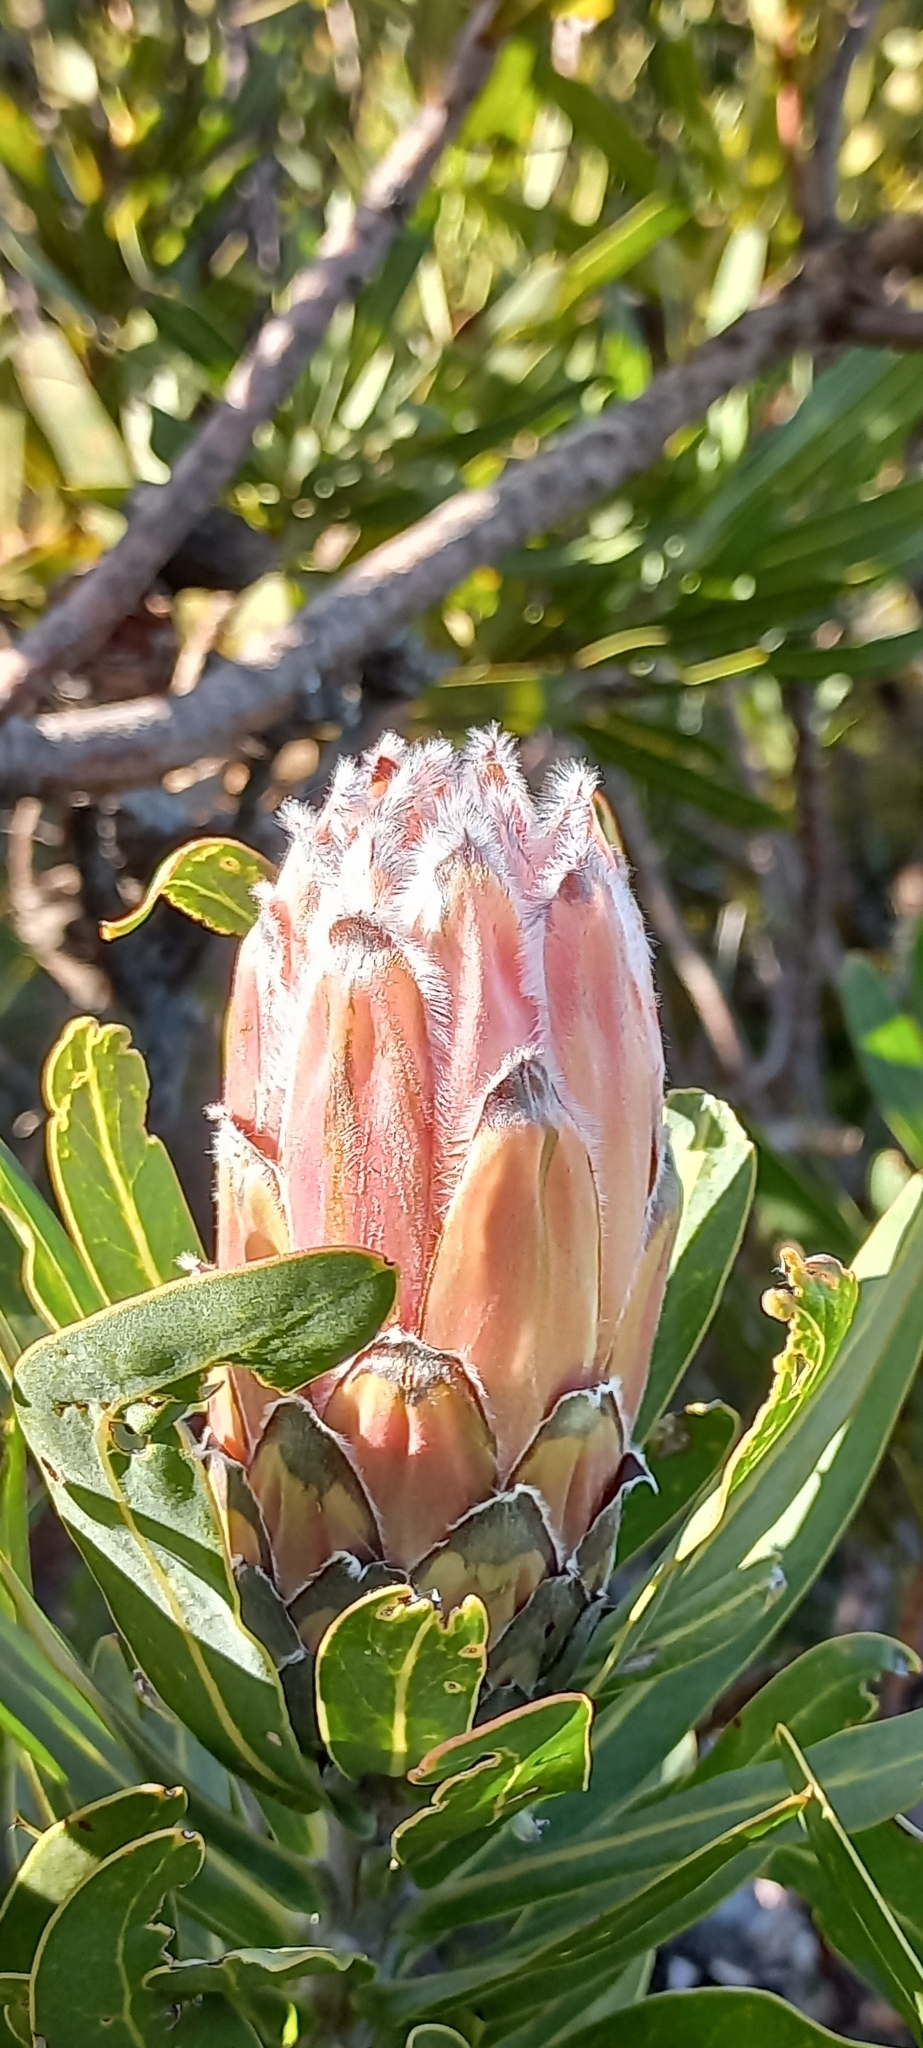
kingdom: Plantae
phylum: Tracheophyta
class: Magnoliopsida
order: Proteales
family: Proteaceae
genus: Protea
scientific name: Protea
